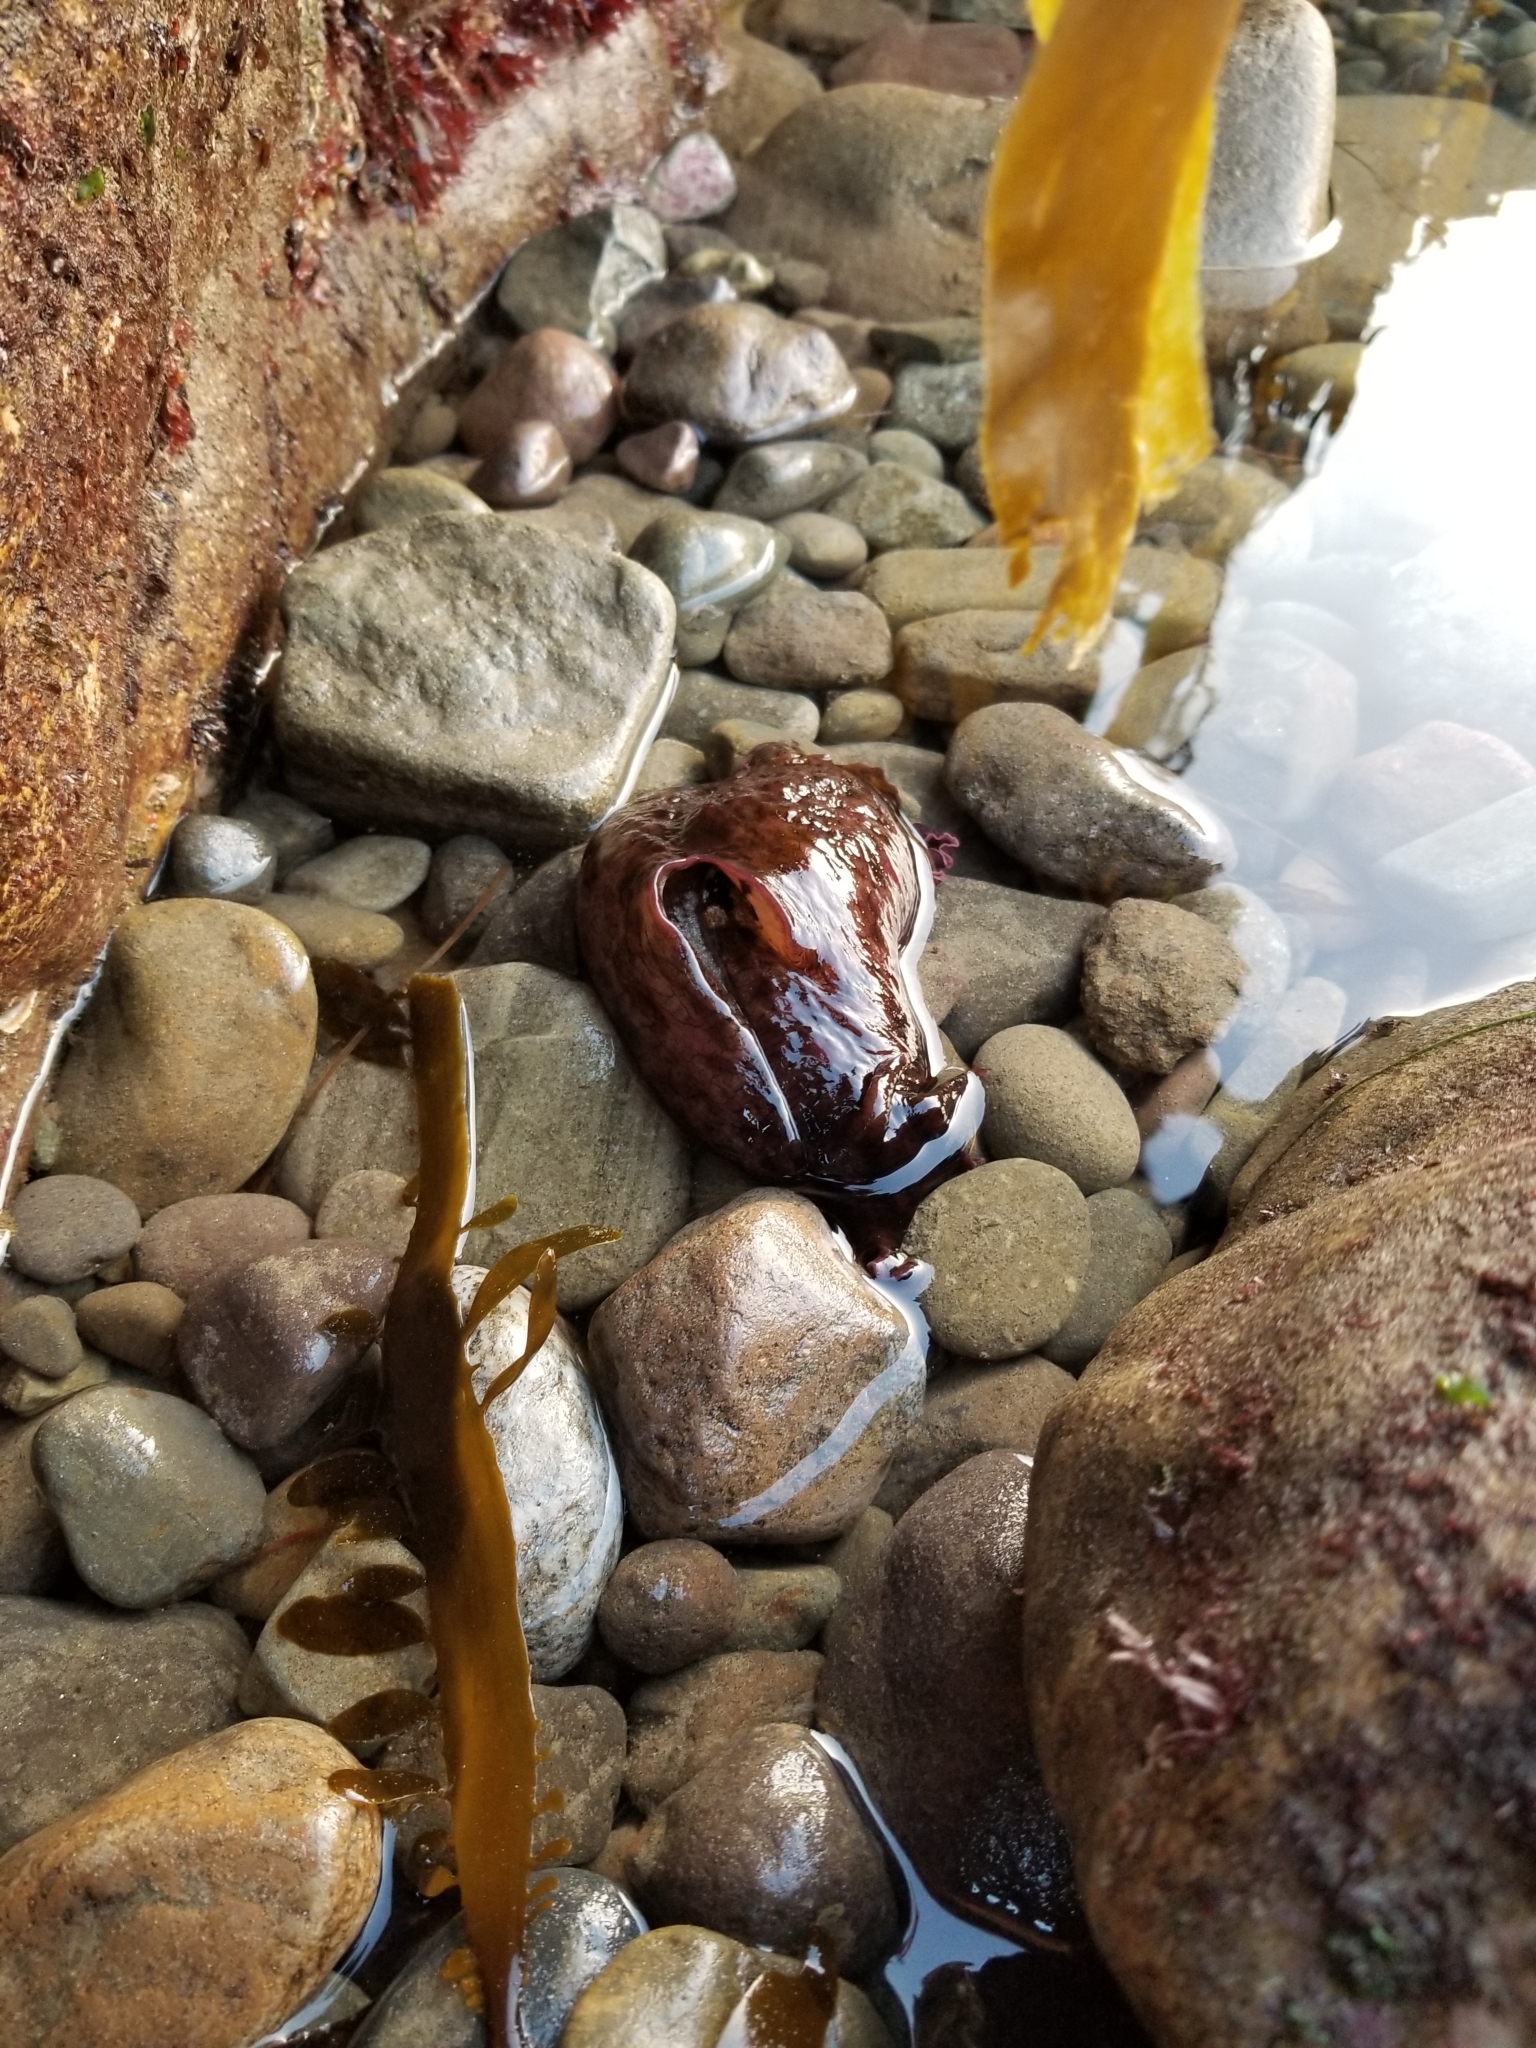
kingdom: Animalia
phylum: Mollusca
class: Gastropoda
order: Aplysiida
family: Aplysiidae
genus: Aplysia
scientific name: Aplysia californica
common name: California seahare
